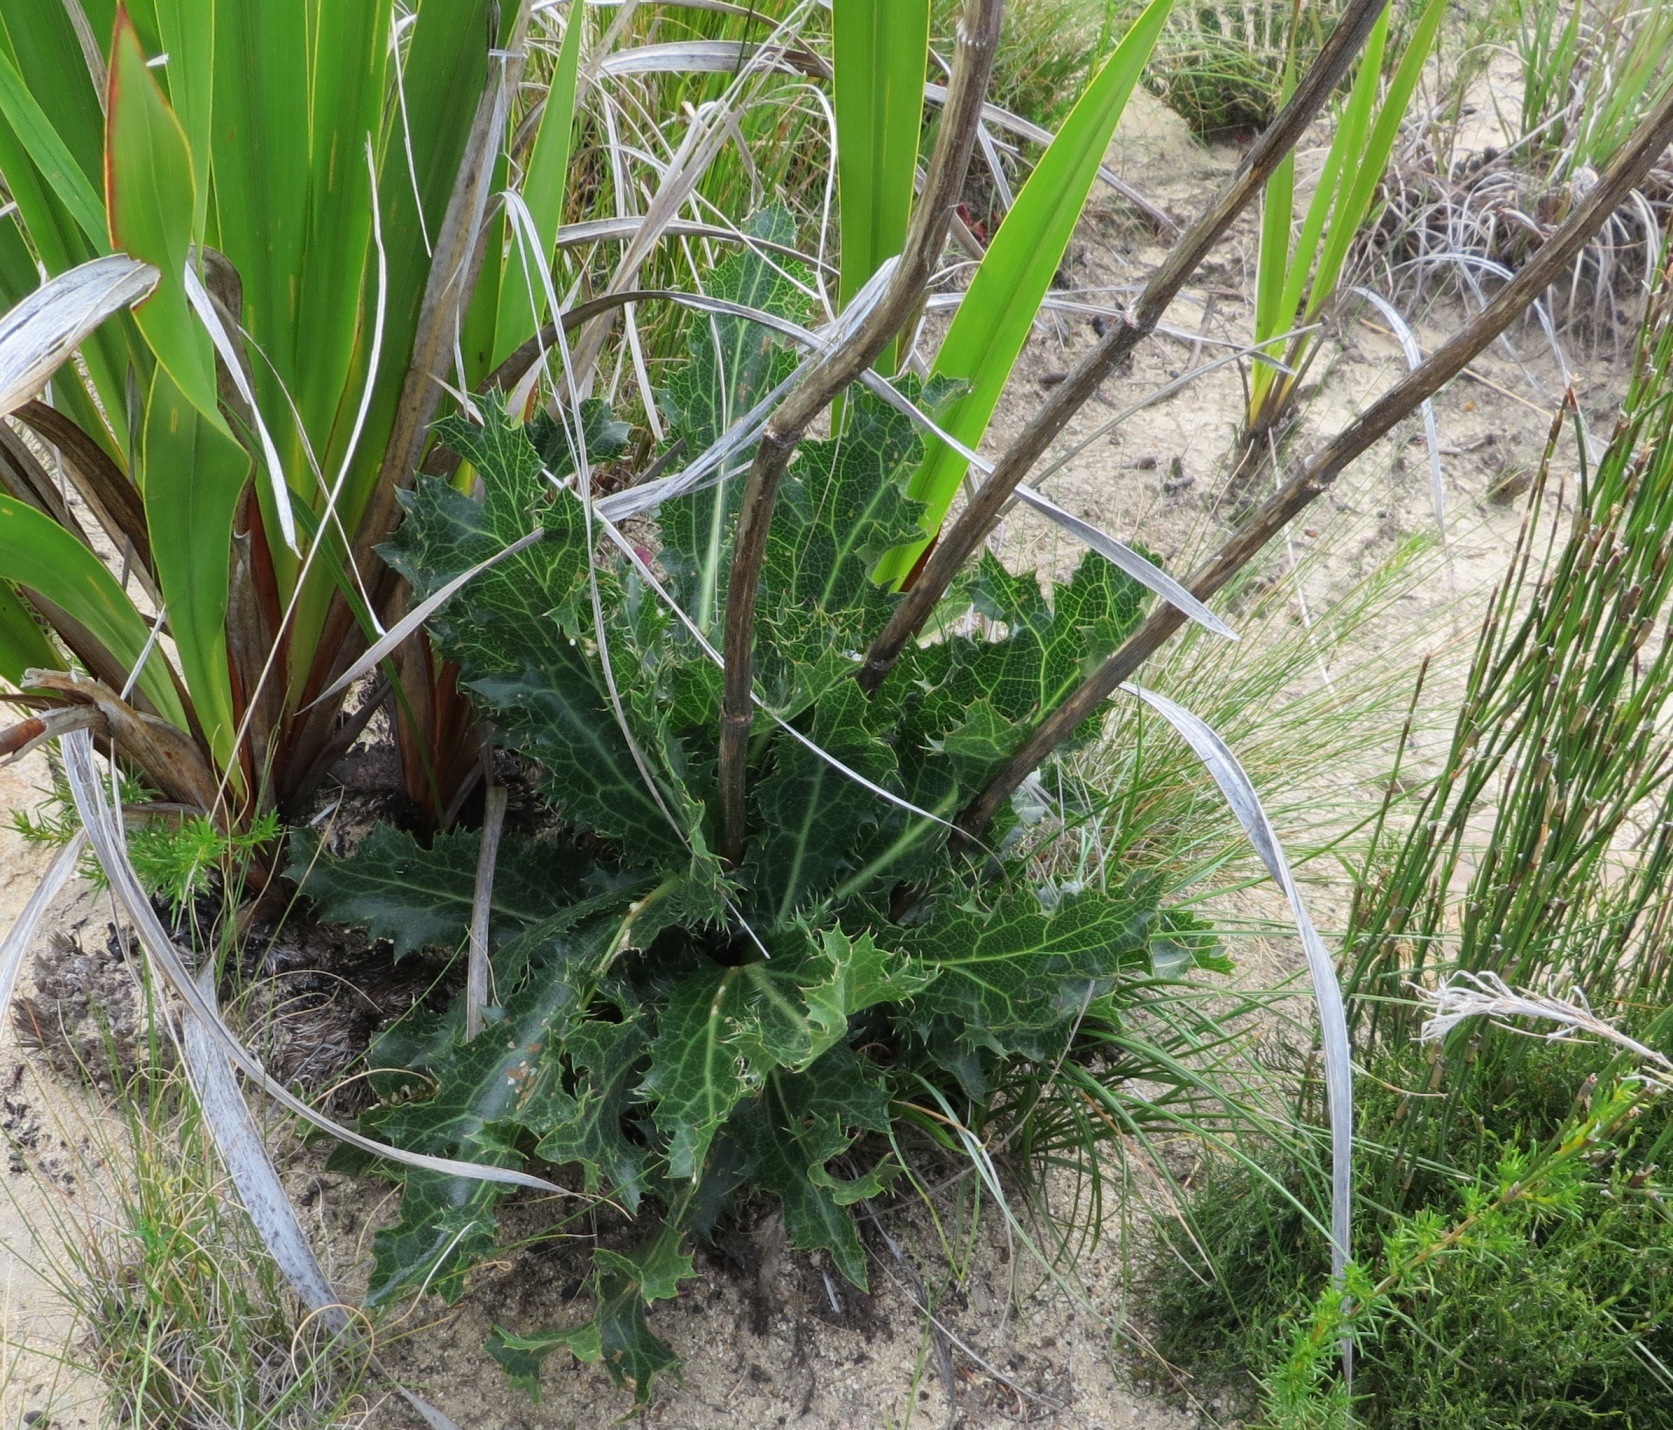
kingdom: Plantae
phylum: Tracheophyta
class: Magnoliopsida
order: Apiales
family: Apiaceae
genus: Lichtensteinia
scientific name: Lichtensteinia lacera
